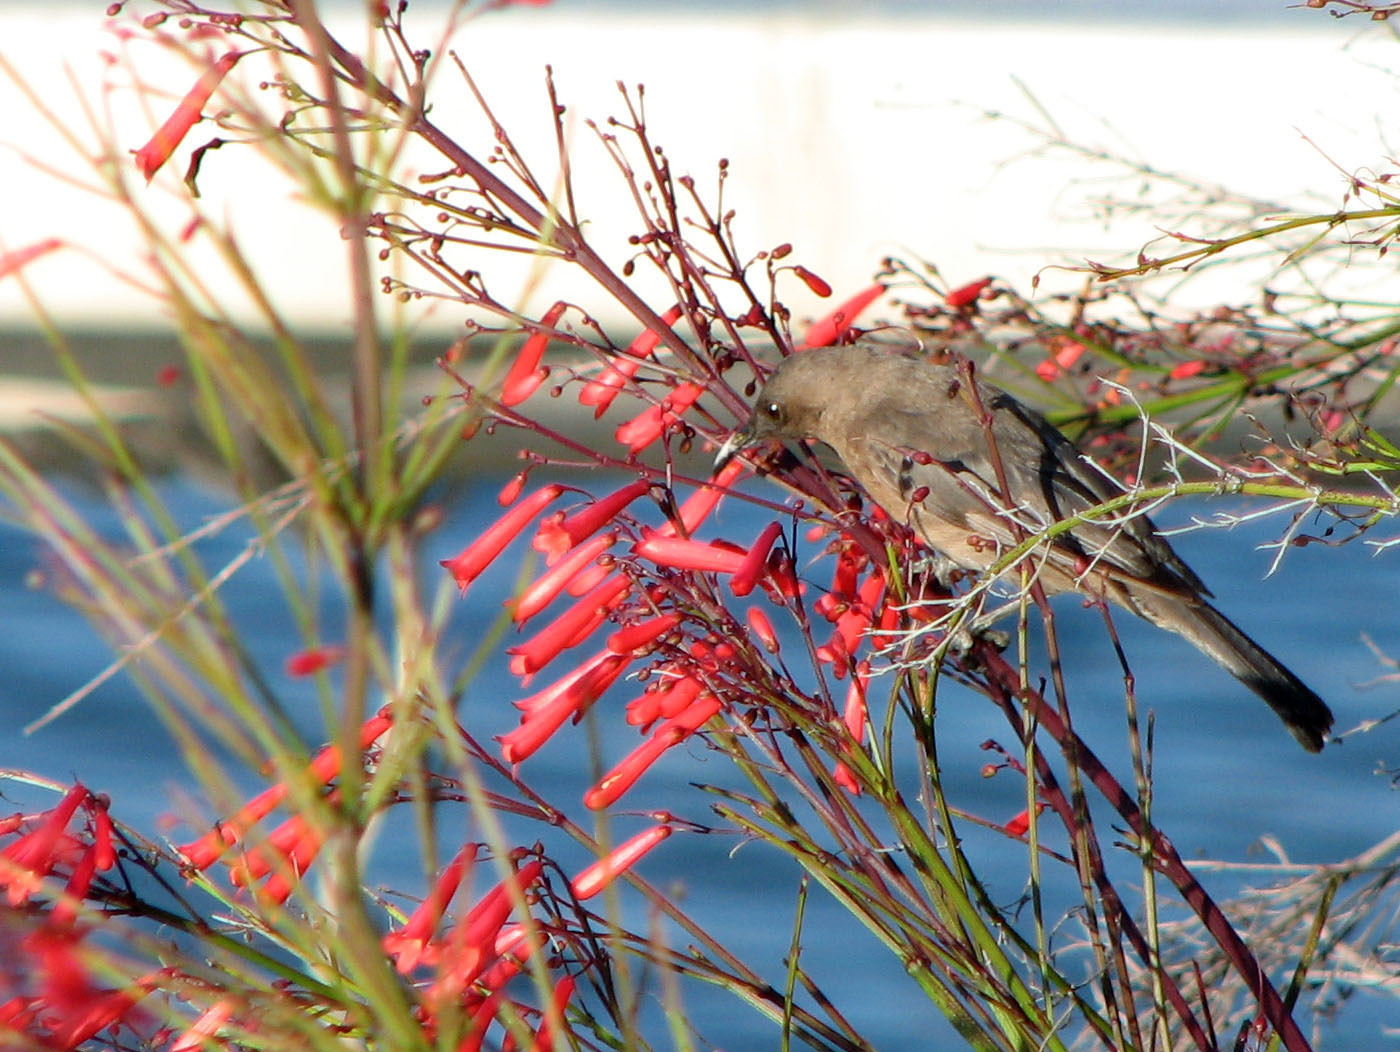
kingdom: Animalia
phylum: Chordata
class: Aves
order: Passeriformes
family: Meliphagidae
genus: Myzomela
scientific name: Myzomela obscura
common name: Dusky myzomela
